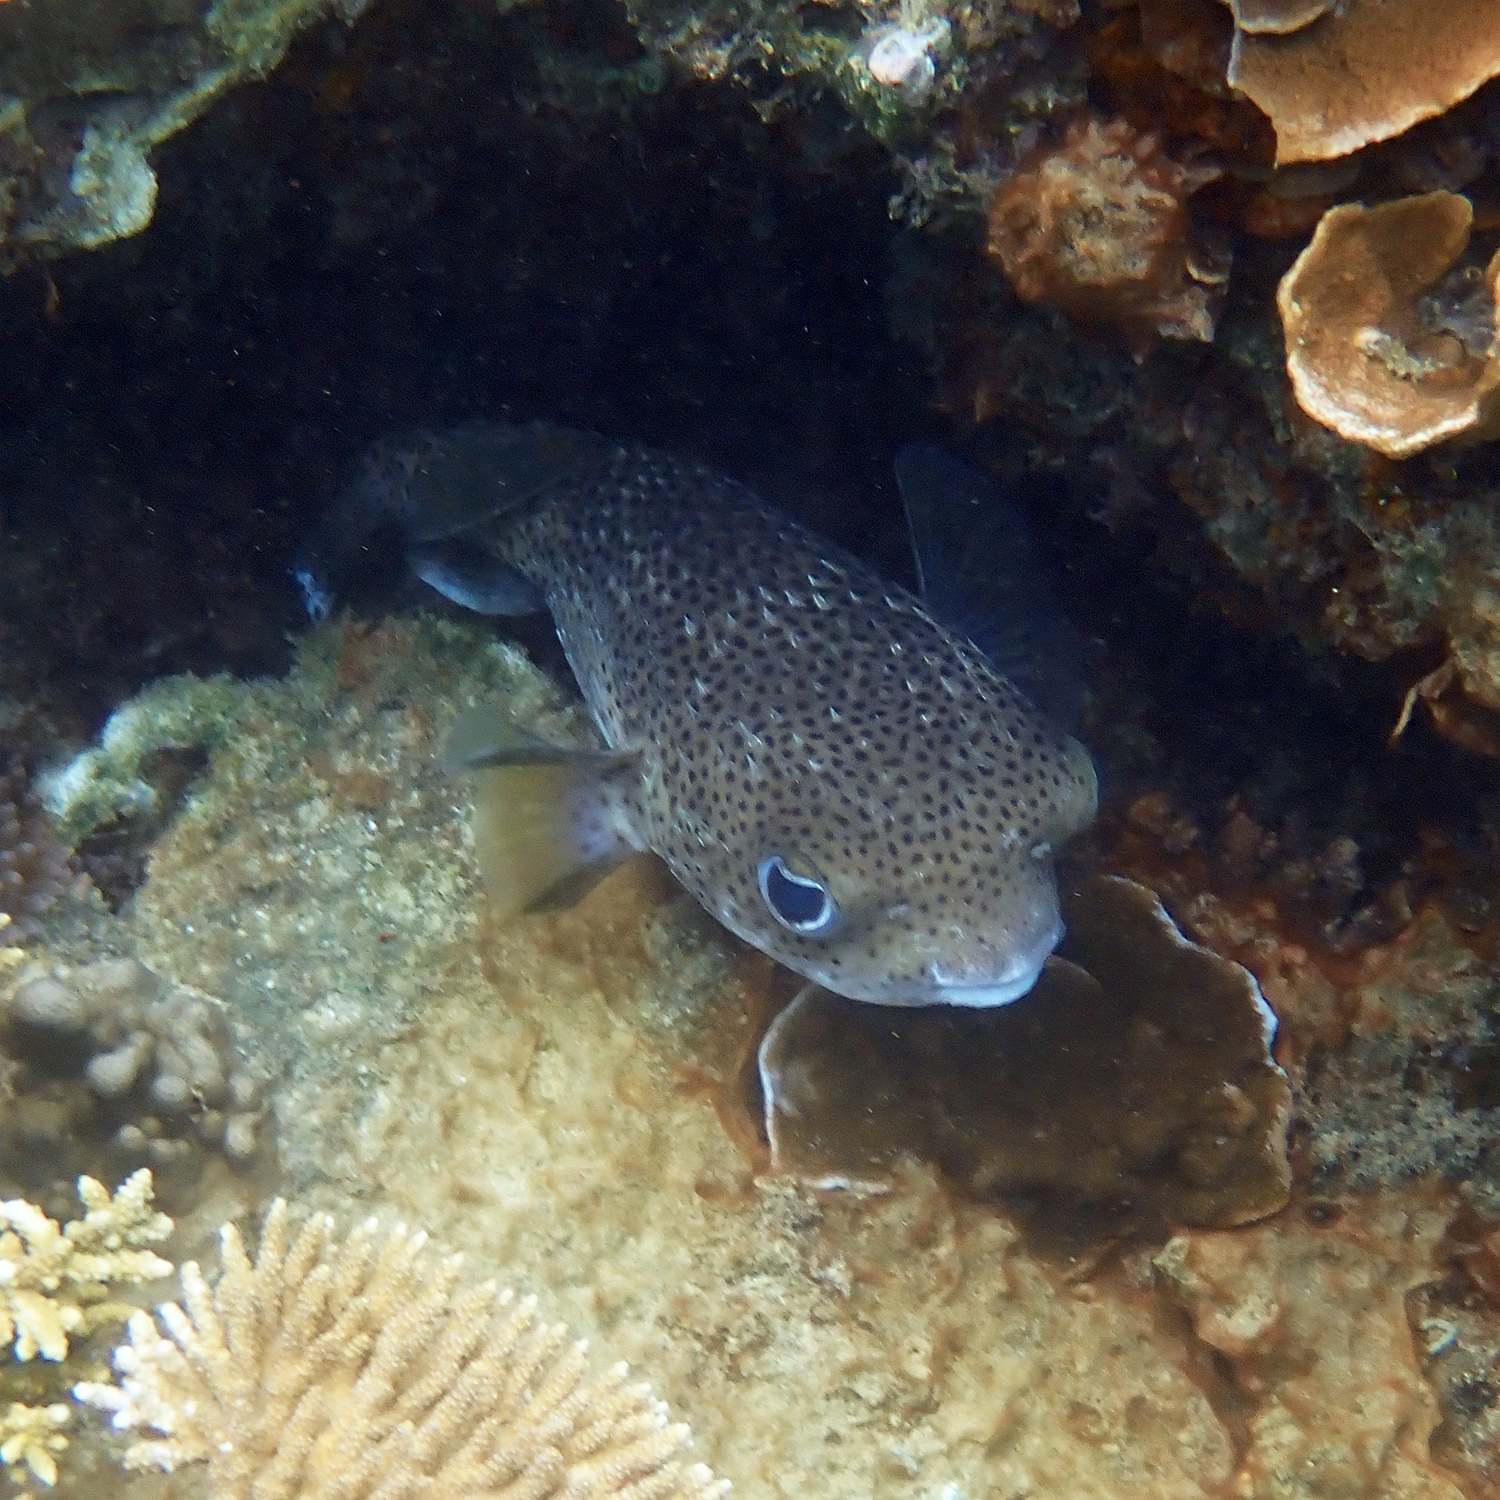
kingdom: Animalia
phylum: Chordata
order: Tetraodontiformes
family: Diodontidae
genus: Diodon
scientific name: Diodon hystrix
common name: Giant porcupinefish
